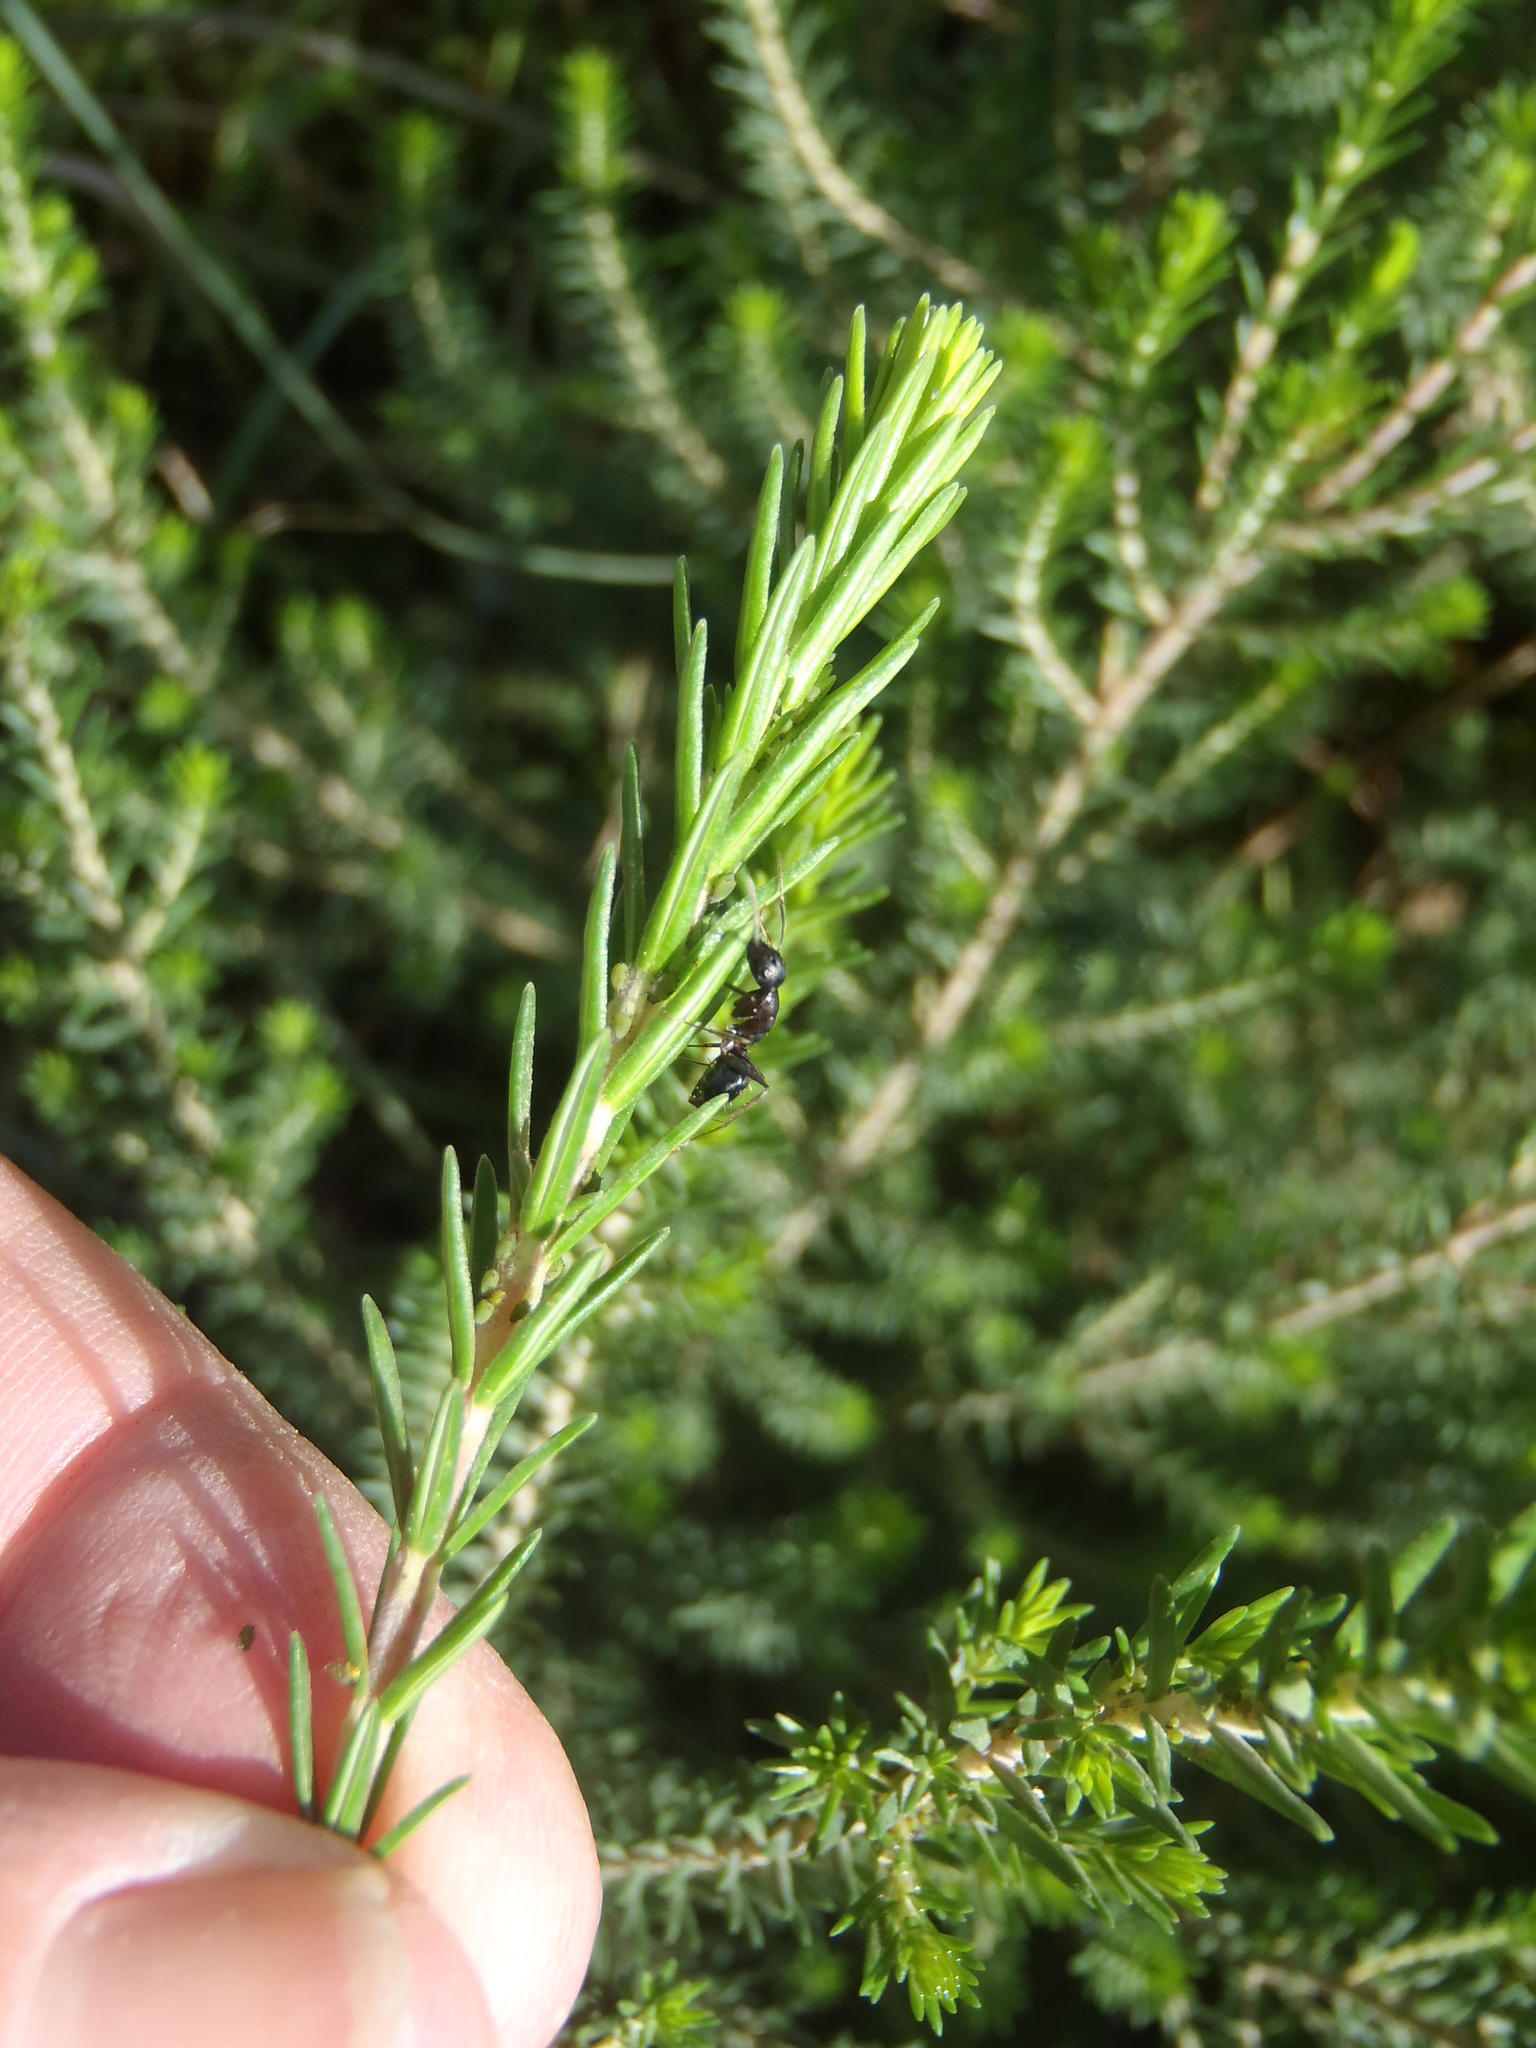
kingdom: Animalia
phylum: Arthropoda
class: Insecta
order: Hymenoptera
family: Formicidae
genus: Camponotus
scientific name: Camponotus niveosetosus
